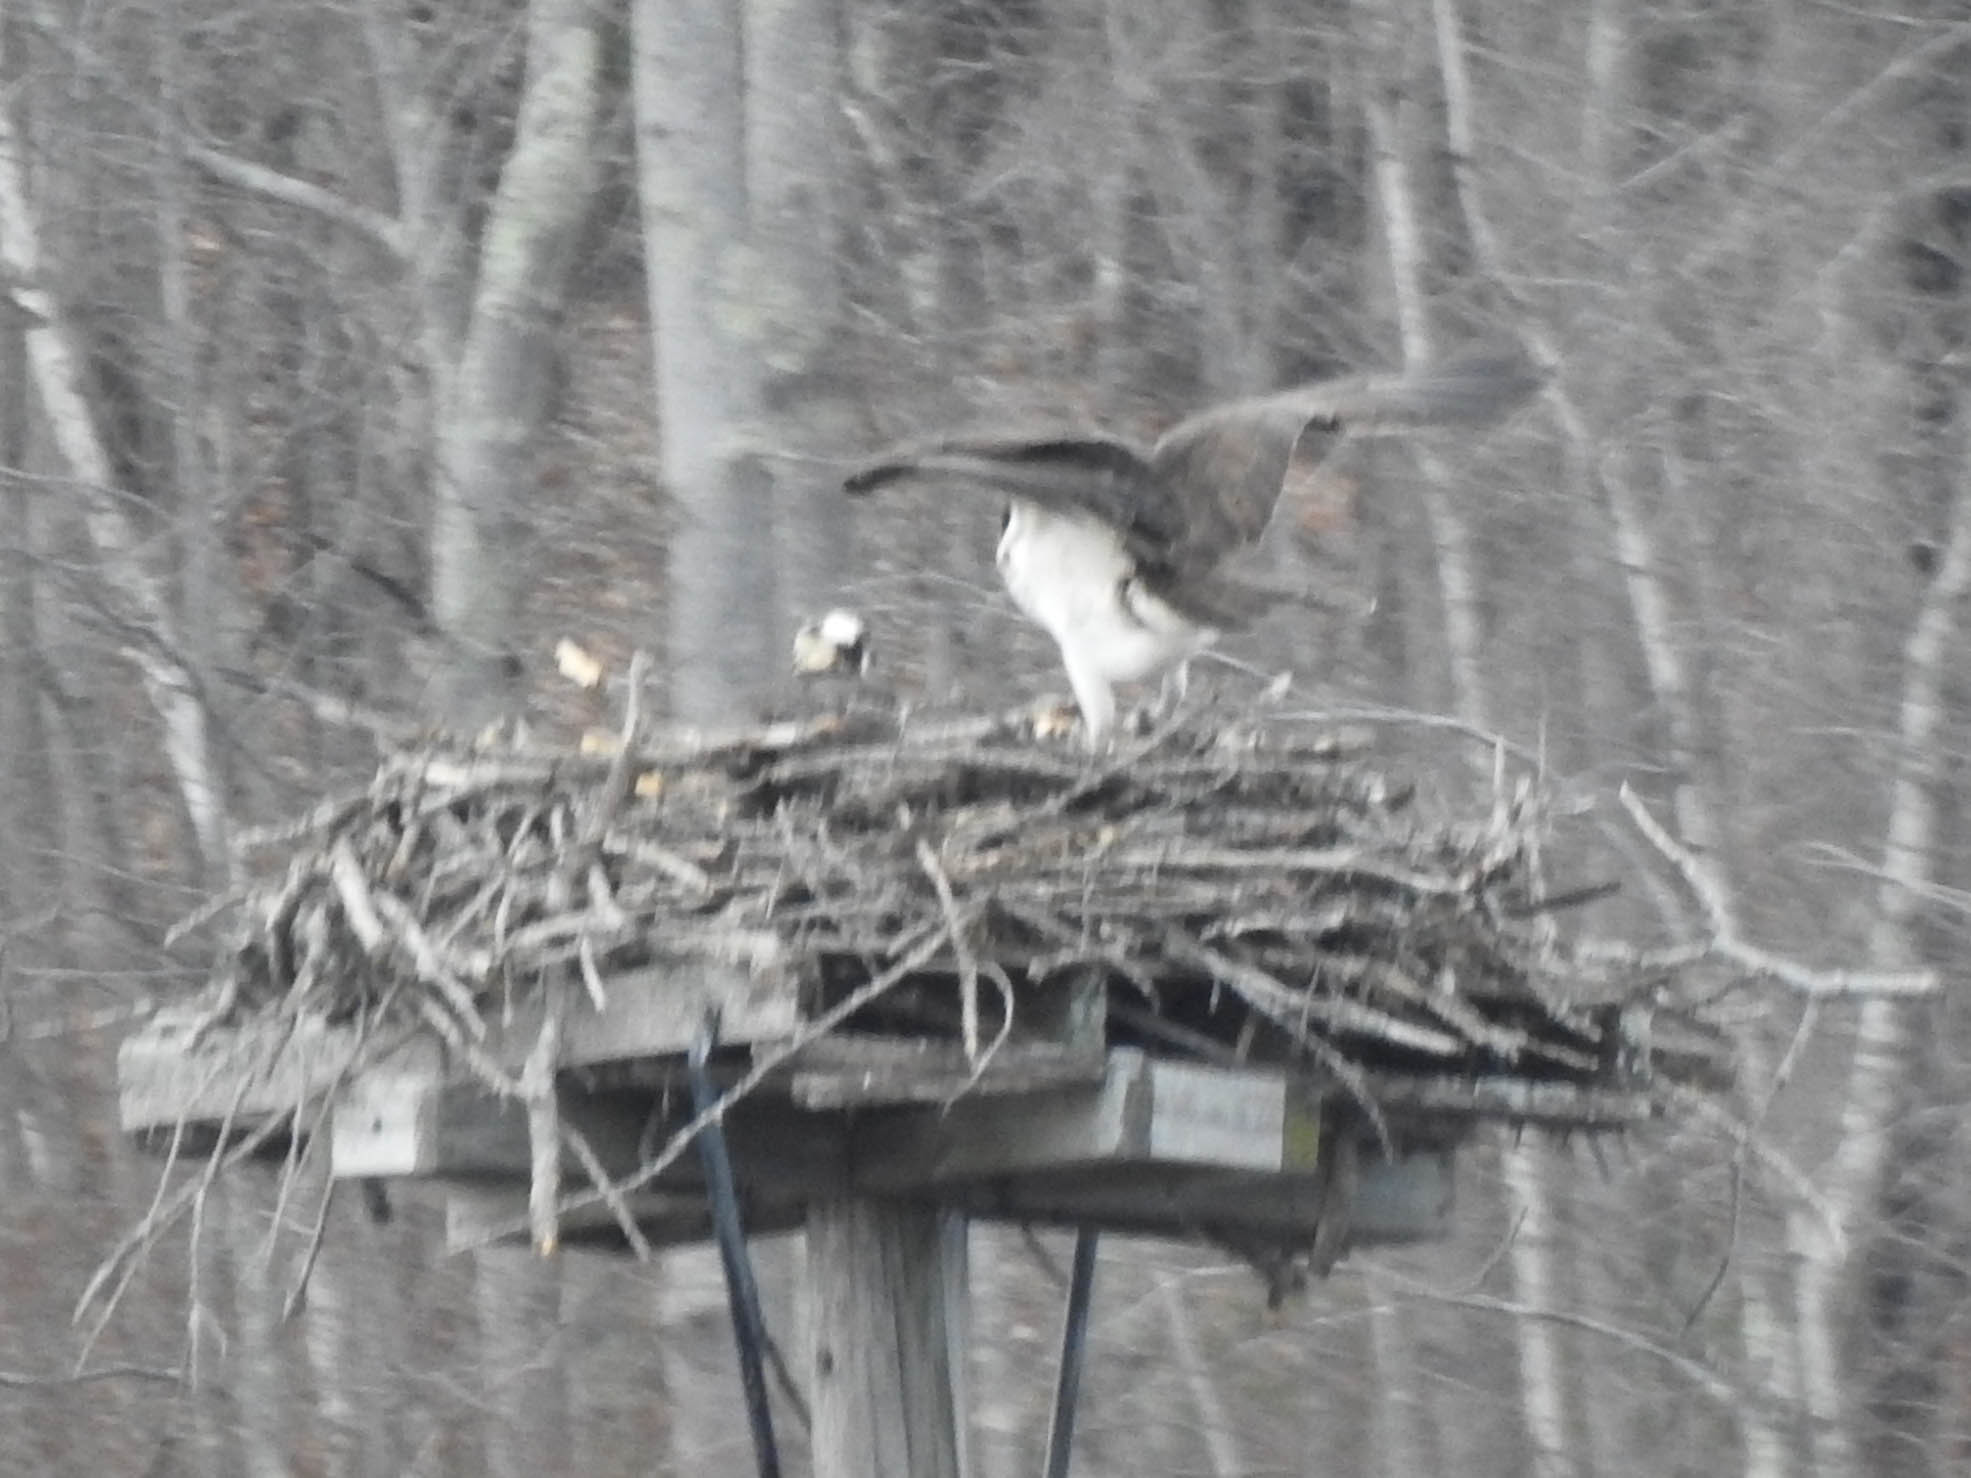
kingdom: Animalia
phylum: Chordata
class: Aves
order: Accipitriformes
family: Pandionidae
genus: Pandion
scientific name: Pandion haliaetus
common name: Osprey
